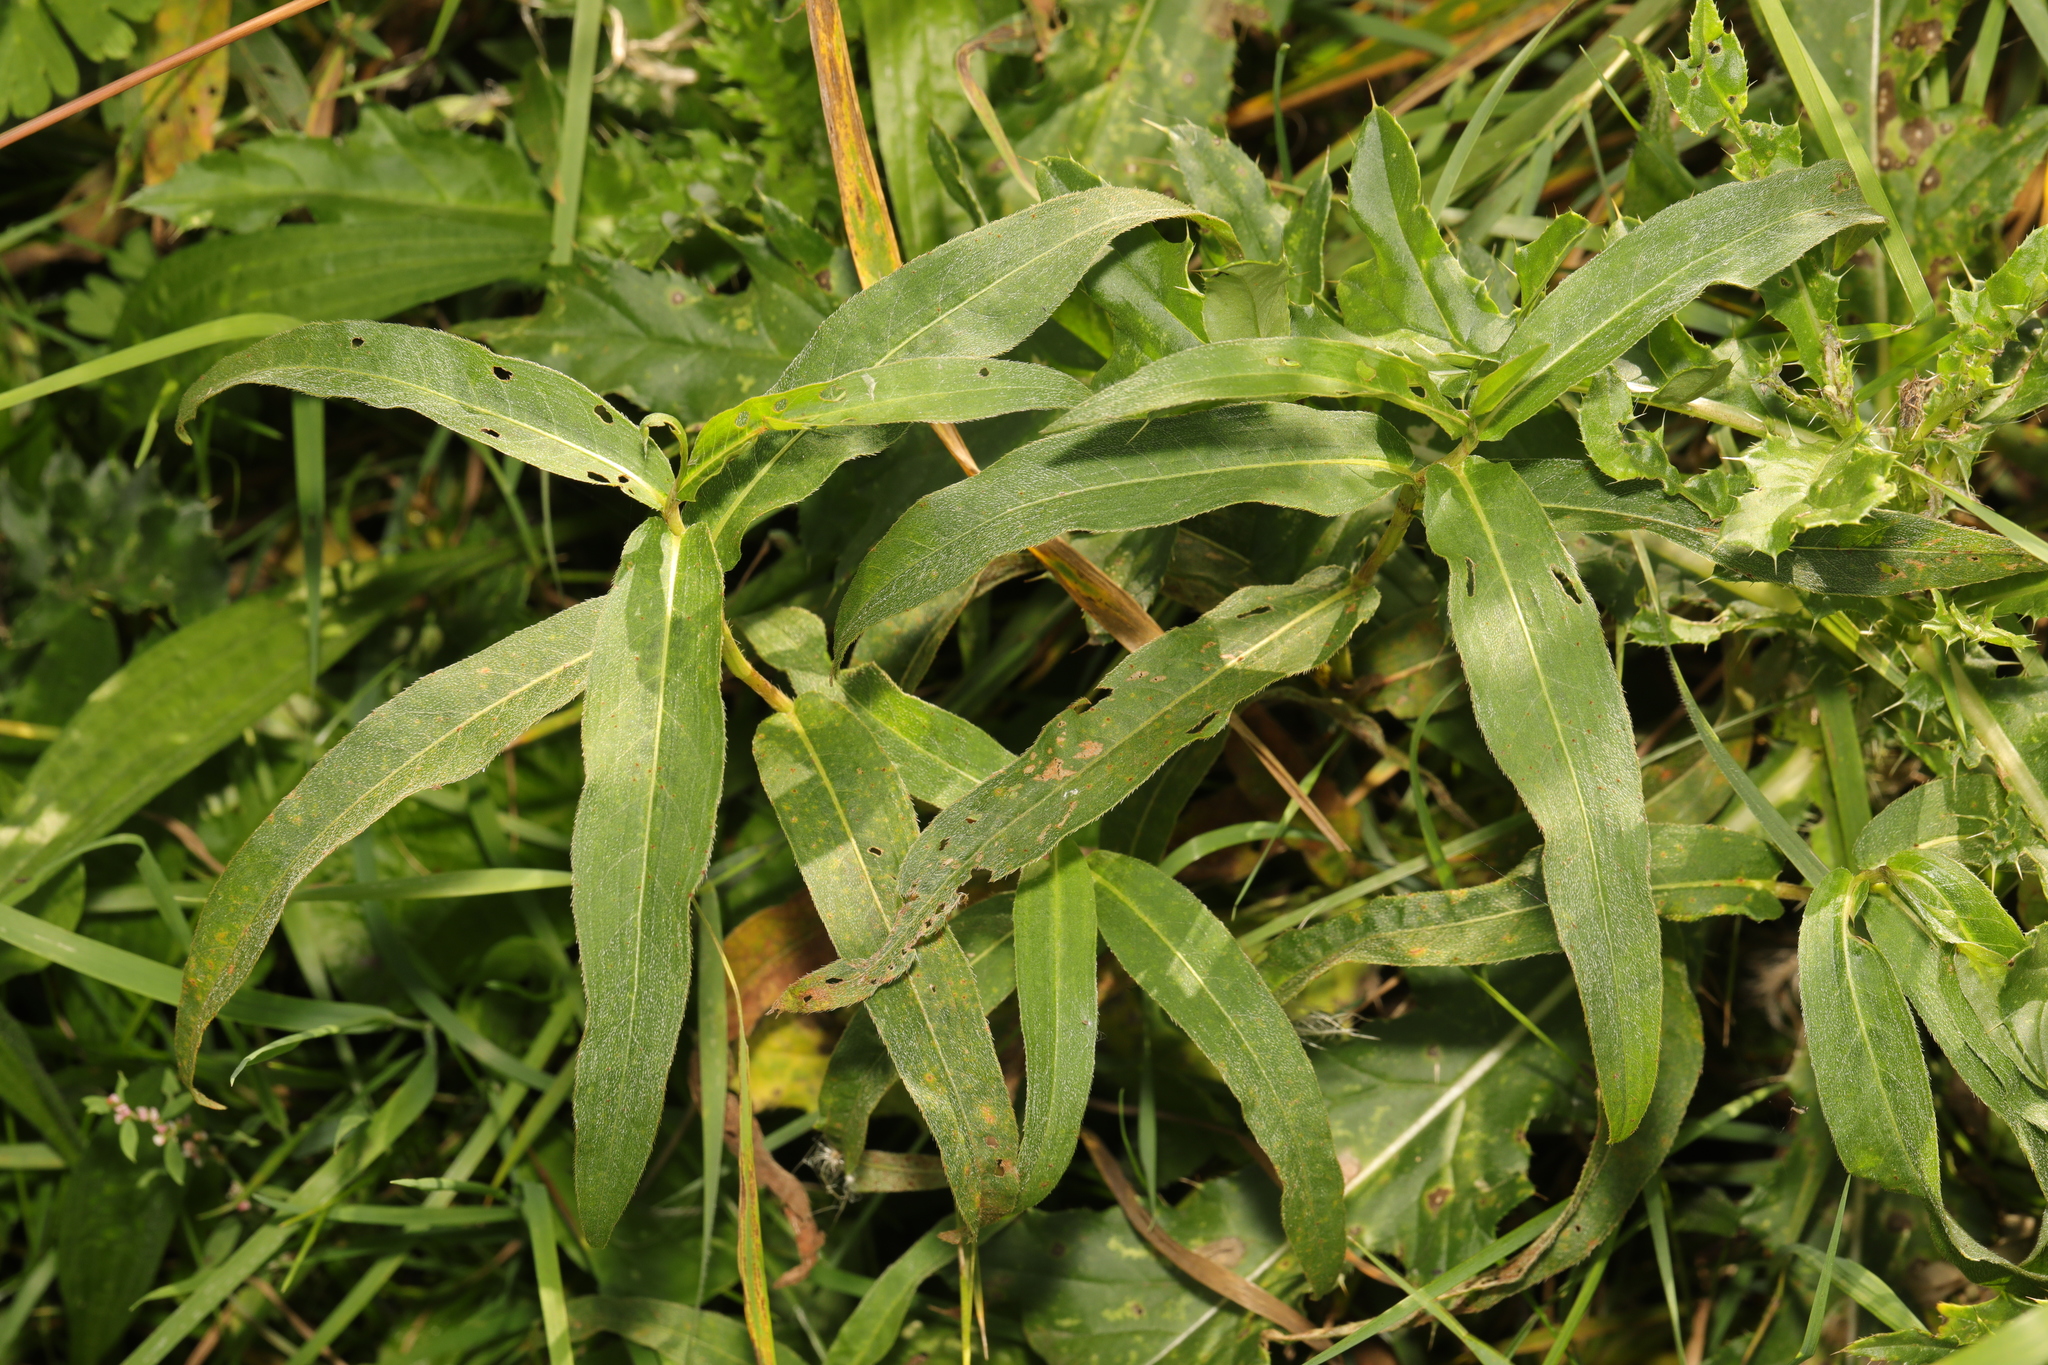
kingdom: Plantae
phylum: Tracheophyta
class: Magnoliopsida
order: Caryophyllales
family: Polygonaceae
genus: Persicaria
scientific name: Persicaria amphibia
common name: Amphibious bistort
